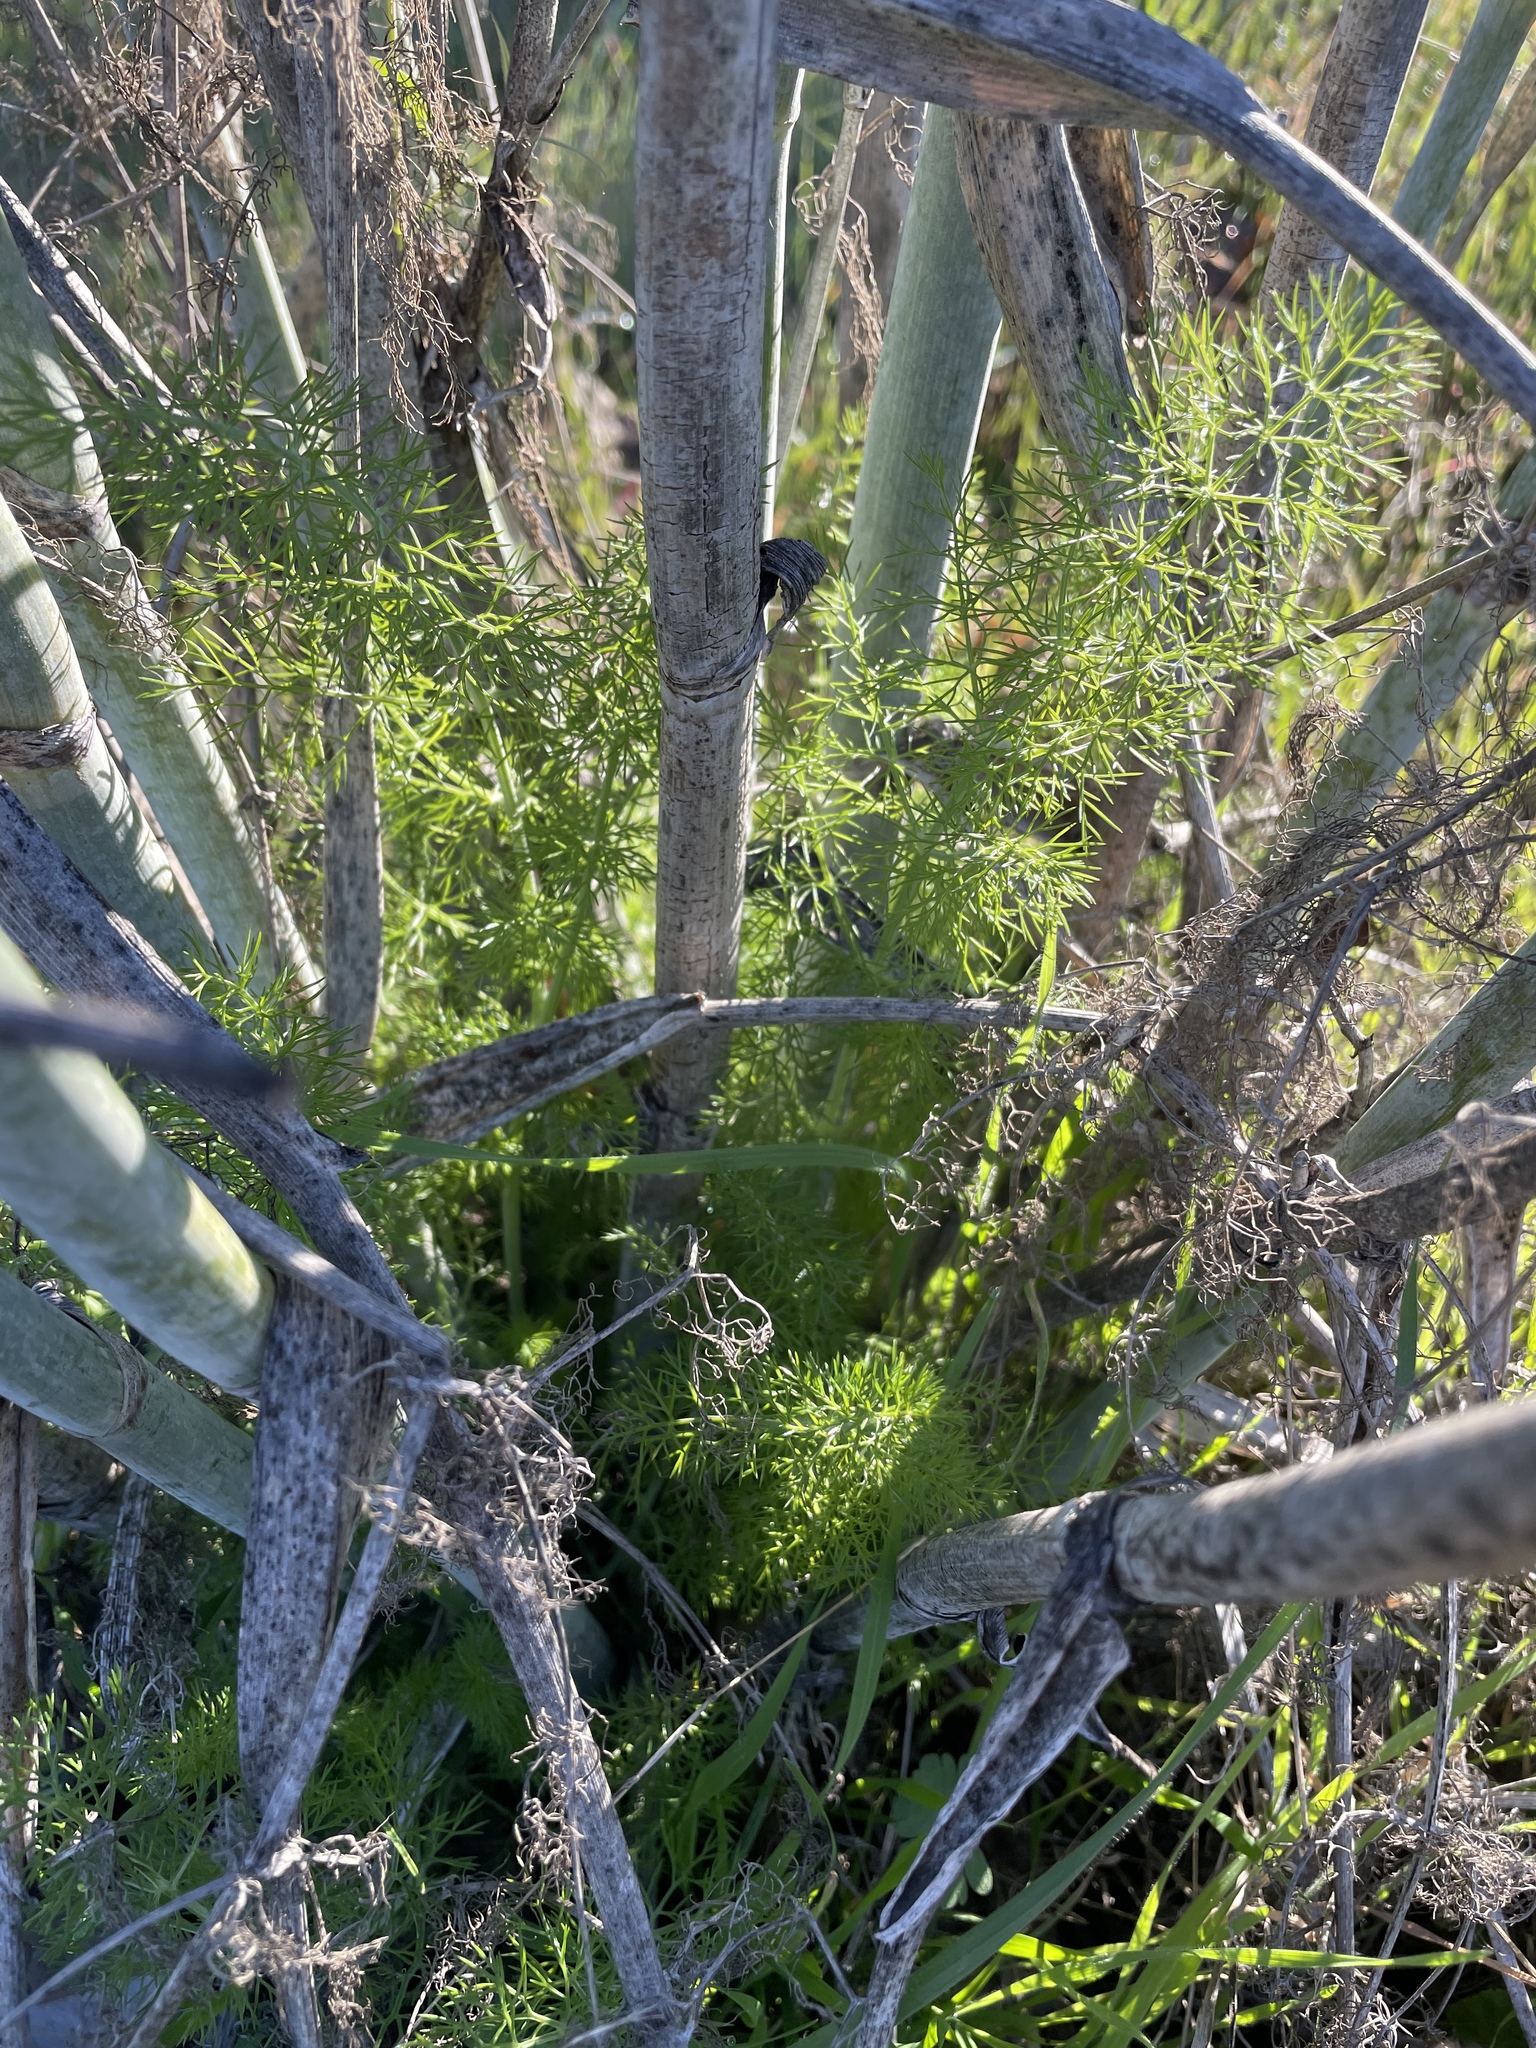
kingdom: Plantae
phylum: Tracheophyta
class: Magnoliopsida
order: Apiales
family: Apiaceae
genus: Foeniculum
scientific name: Foeniculum vulgare
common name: Fennel
